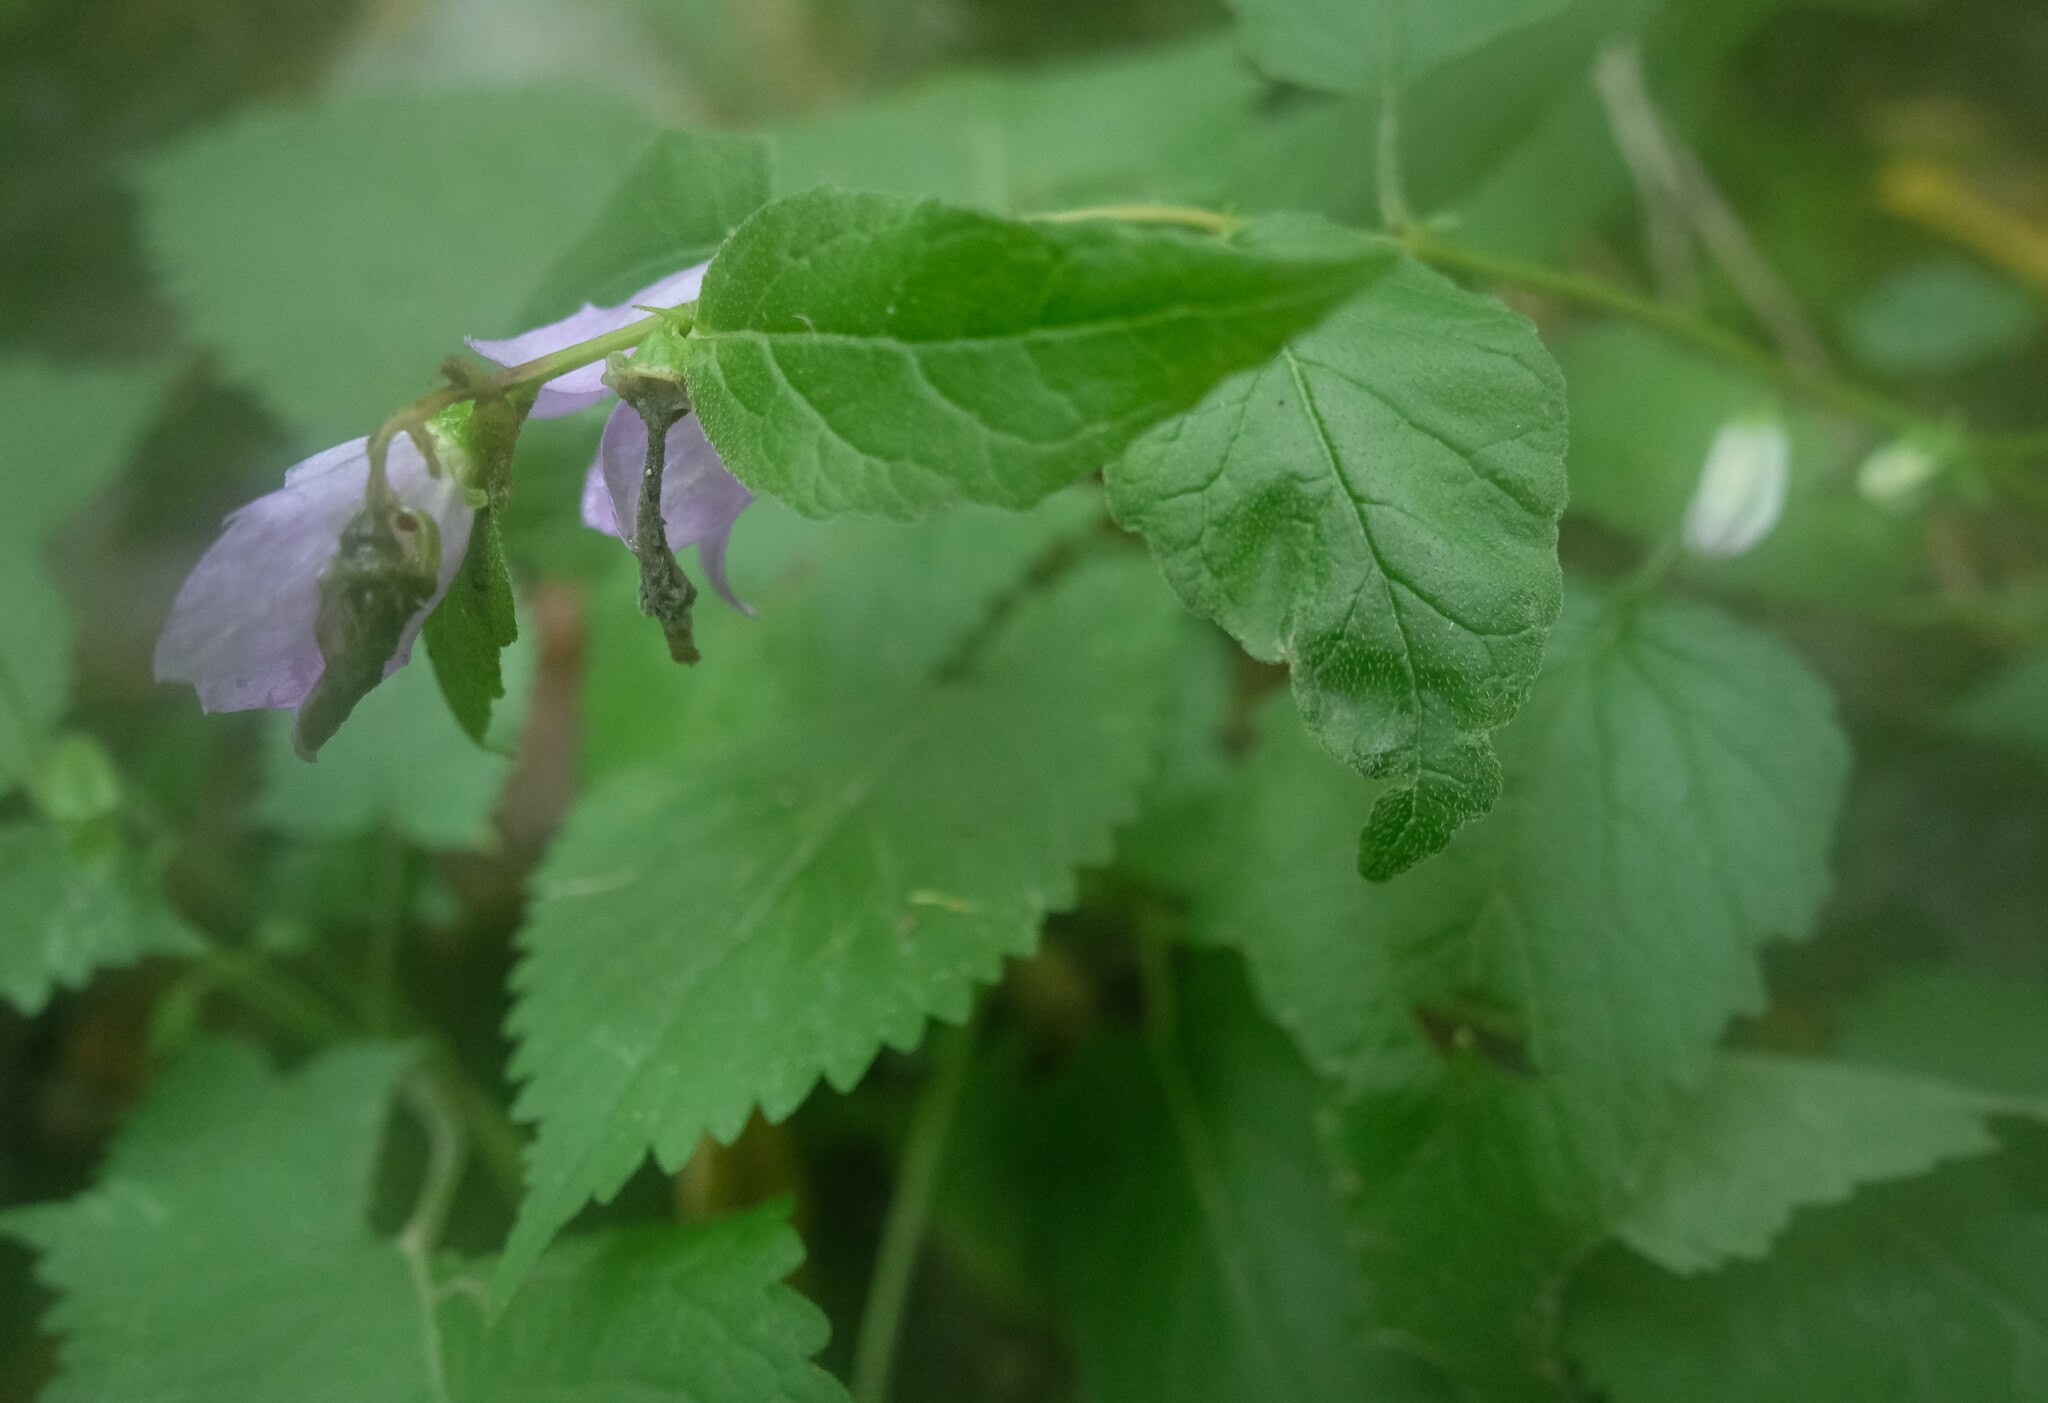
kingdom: Plantae
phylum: Tracheophyta
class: Magnoliopsida
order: Asterales
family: Campanulaceae
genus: Campanula
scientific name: Campanula trachelium
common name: Nettle-leaved bellflower
